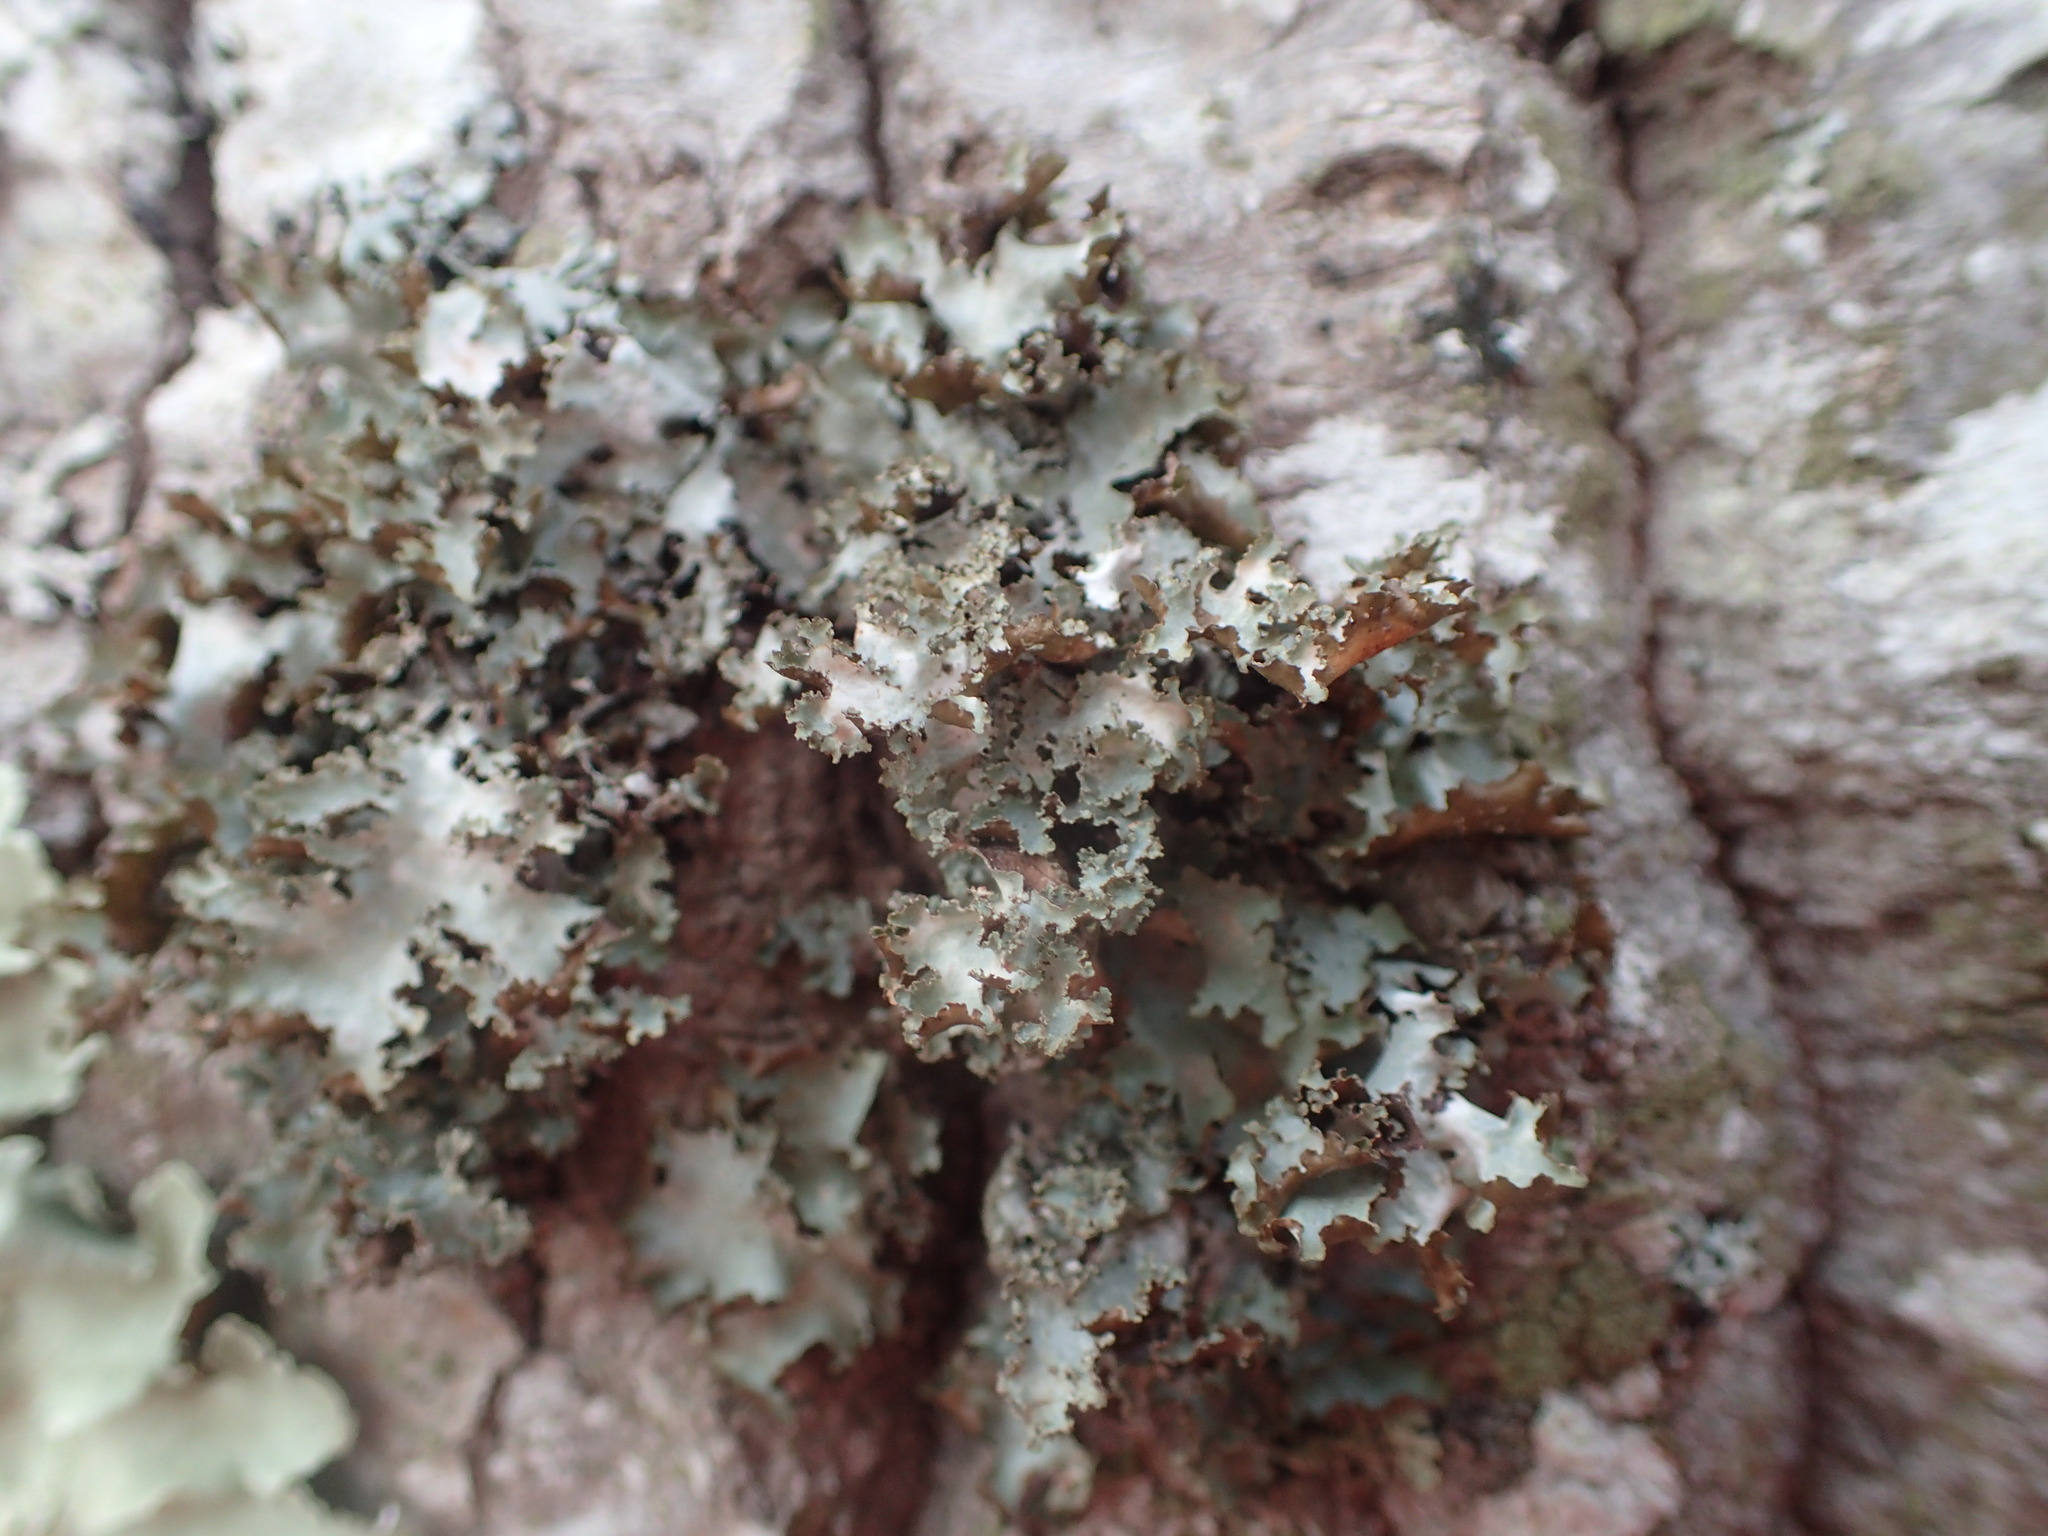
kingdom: Fungi
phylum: Ascomycota
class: Lecanoromycetes
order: Lecanorales
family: Parmeliaceae
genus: Platismatia
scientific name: Platismatia glauca
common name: Varied rag lichen
